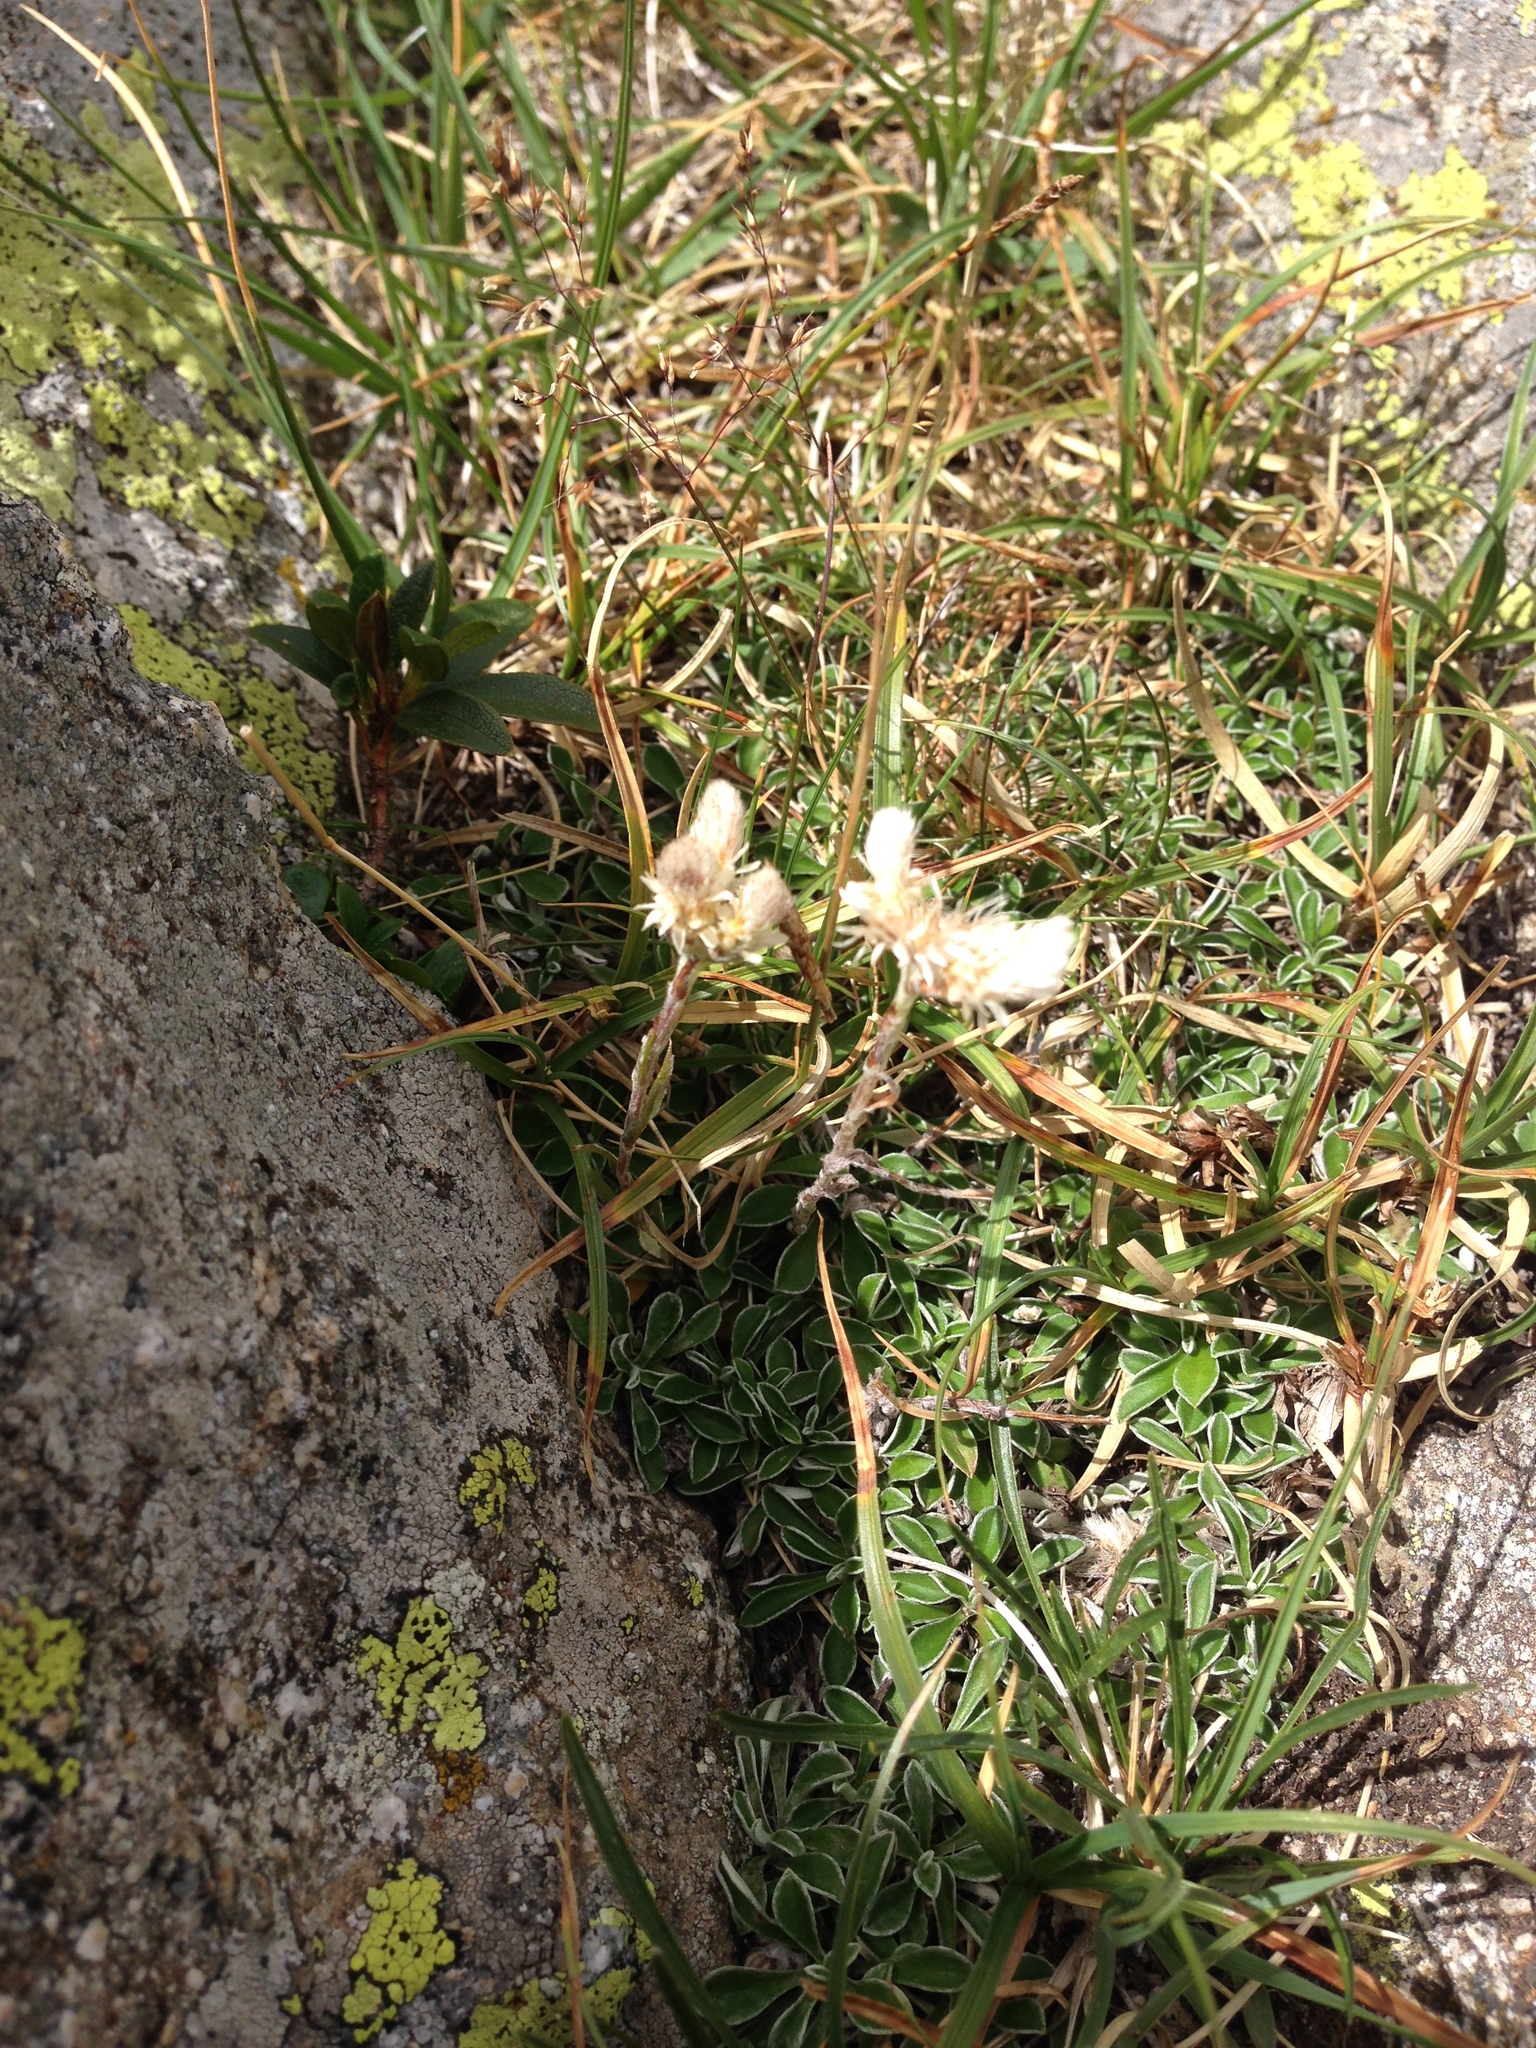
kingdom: Plantae
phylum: Tracheophyta
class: Magnoliopsida
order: Asterales
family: Asteraceae
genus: Antennaria
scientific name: Antennaria dioica
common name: Mountain everlasting
